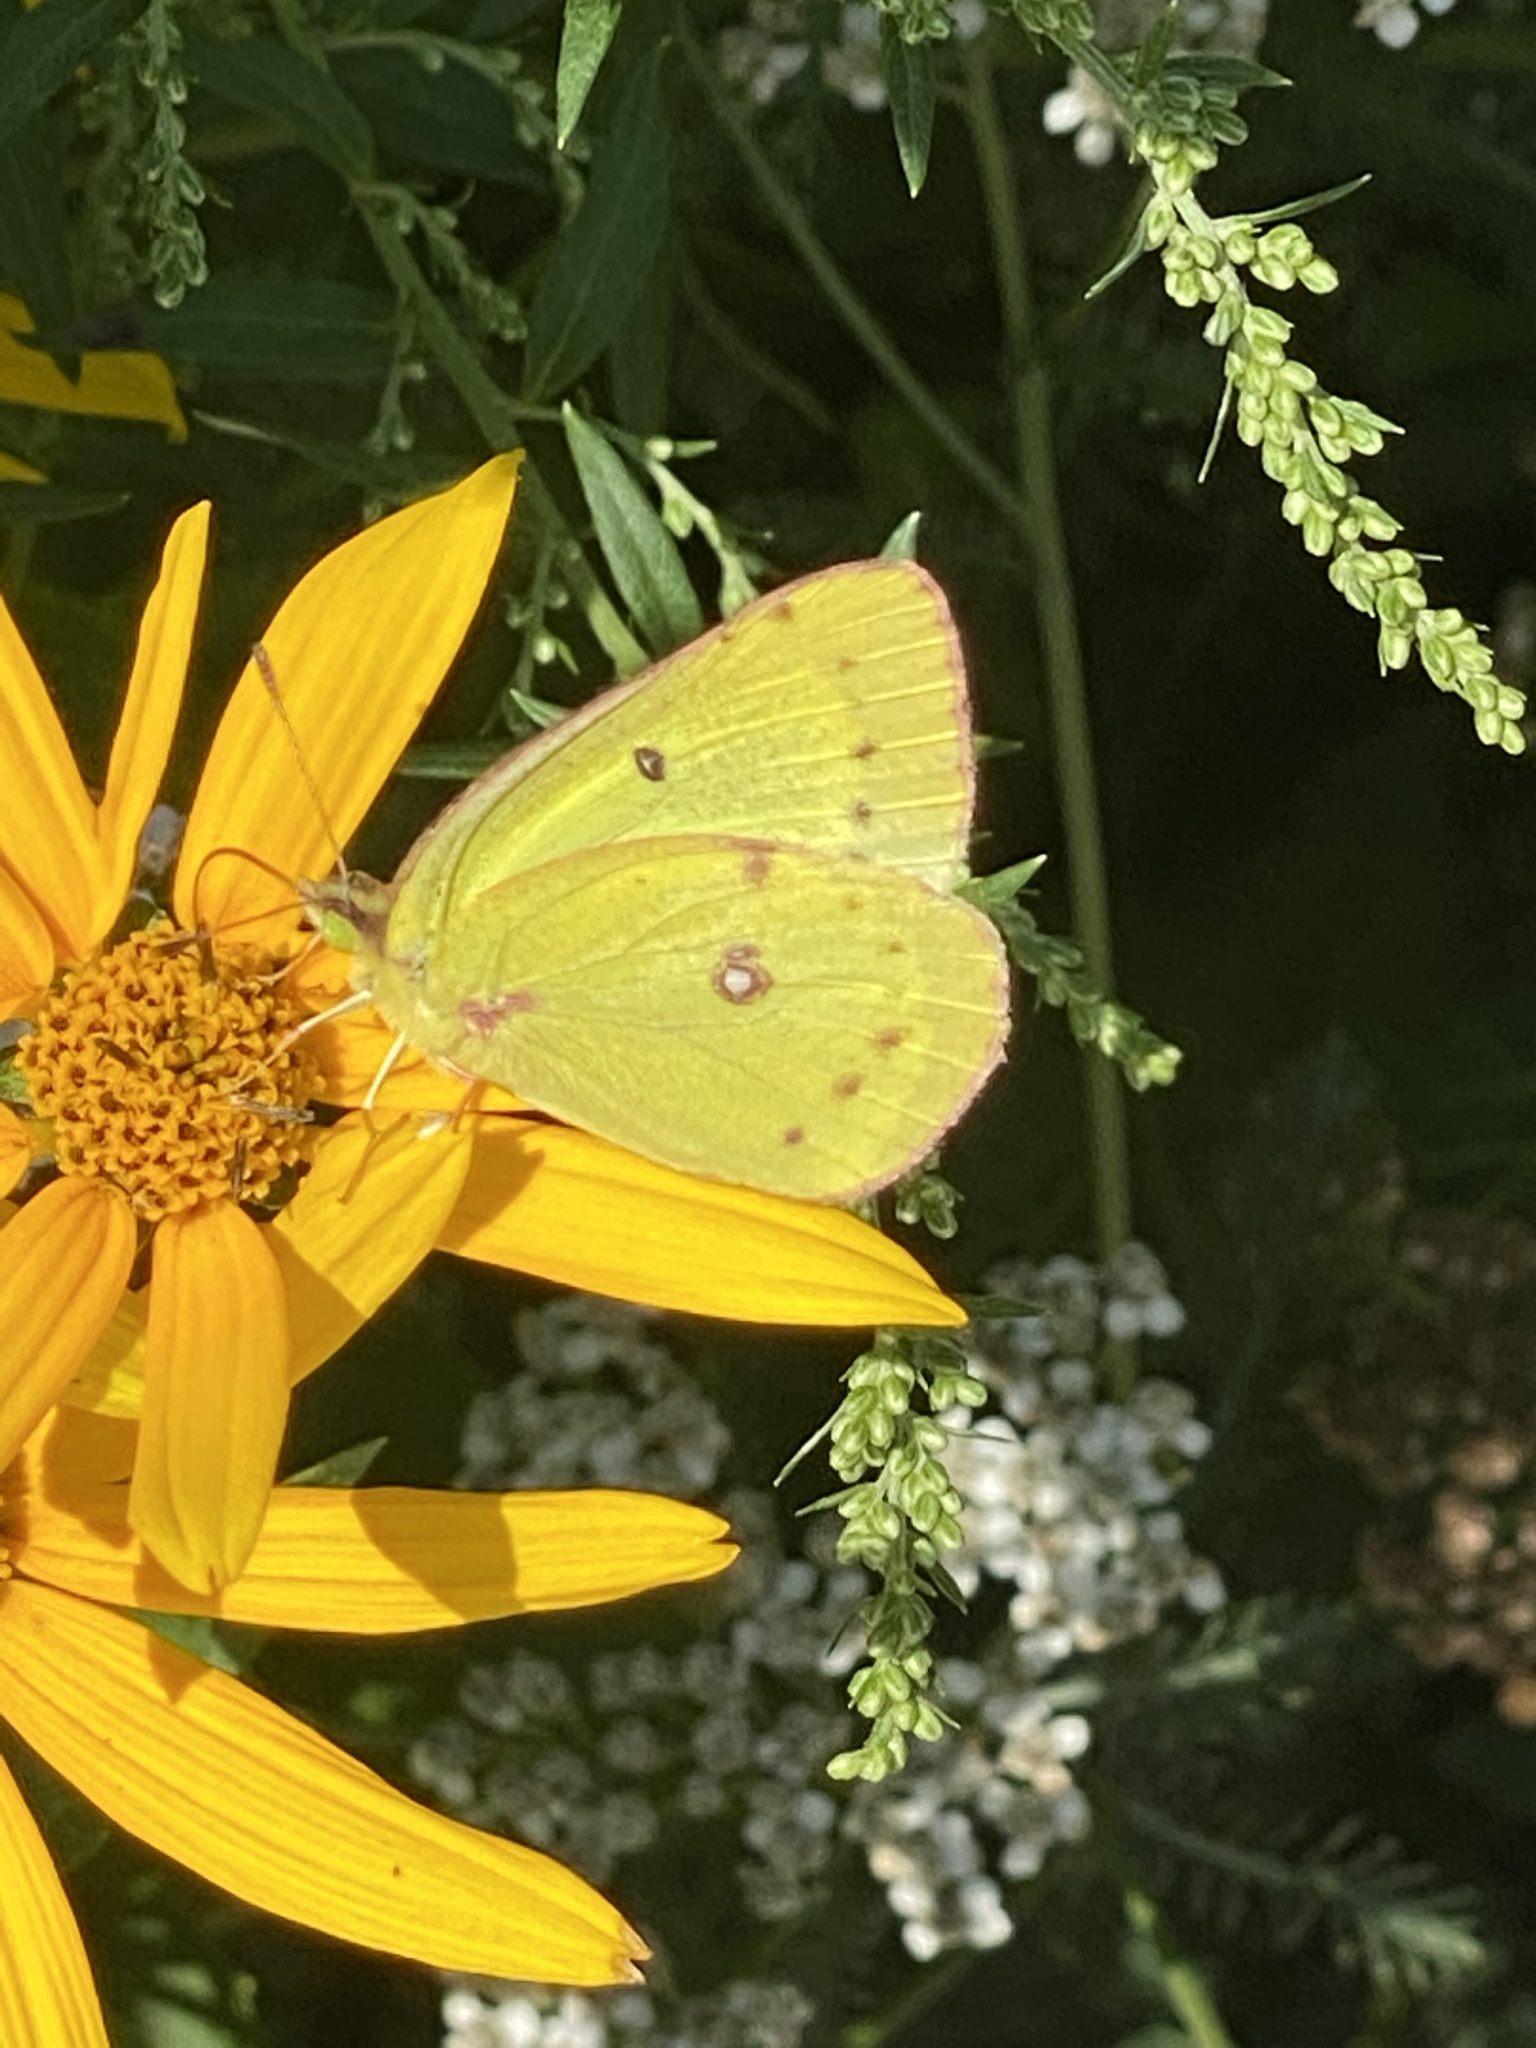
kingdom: Animalia
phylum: Arthropoda
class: Insecta
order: Lepidoptera
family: Pieridae
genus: Colias
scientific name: Colias philodice
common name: Clouded sulphur
